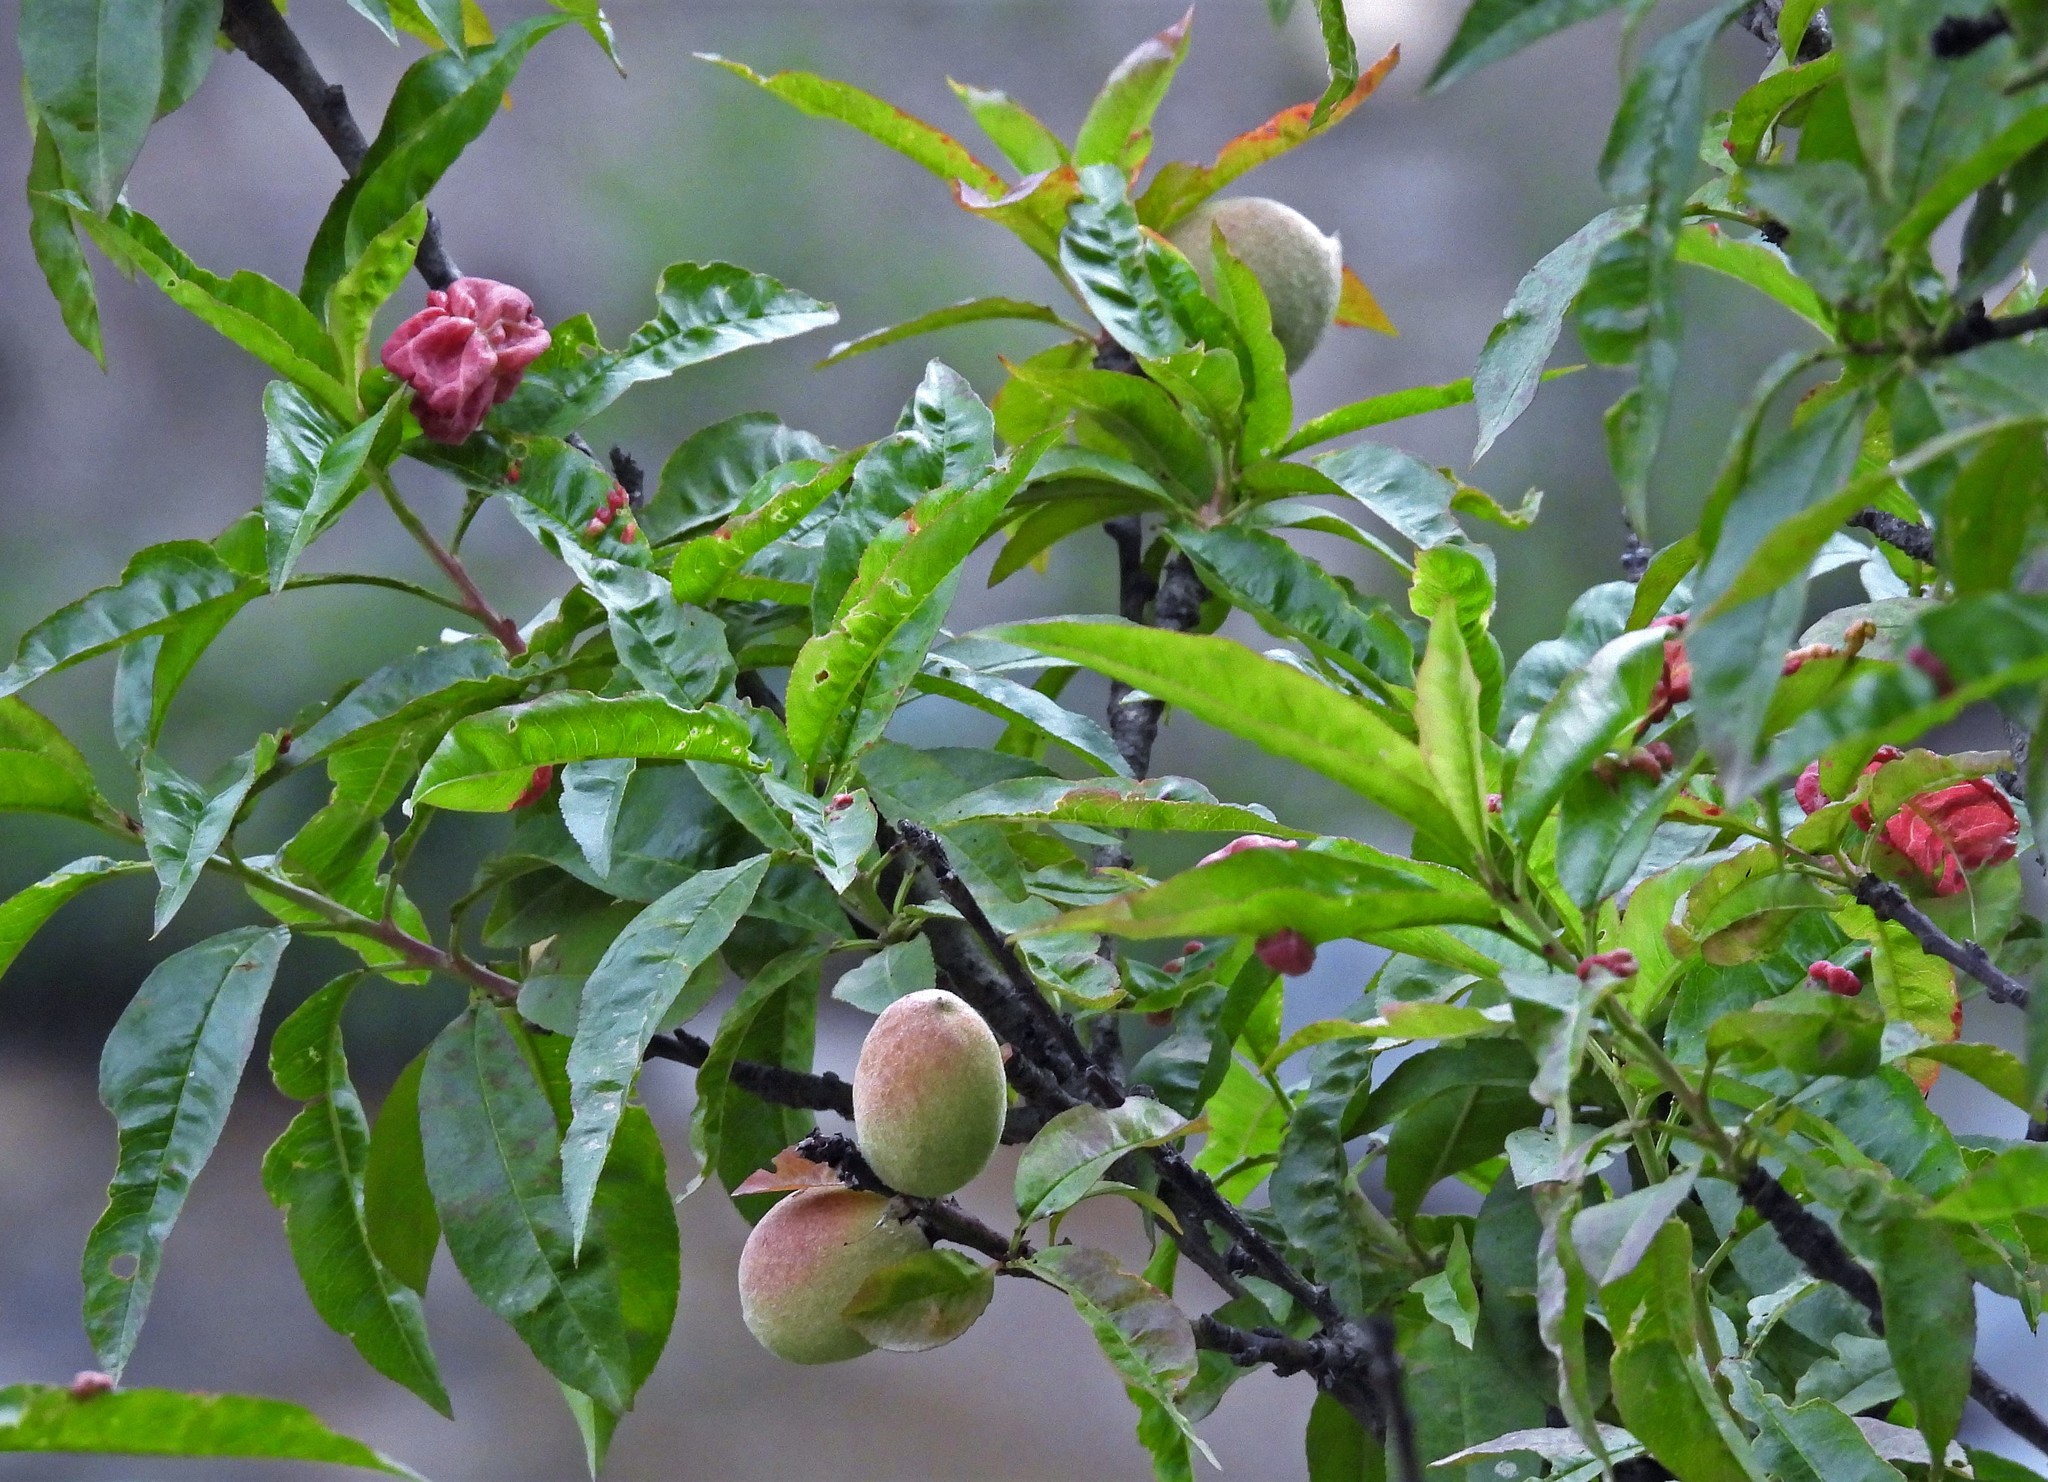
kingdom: Plantae
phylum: Tracheophyta
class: Magnoliopsida
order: Rosales
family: Rosaceae
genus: Prunus
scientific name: Prunus persica
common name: Peach
